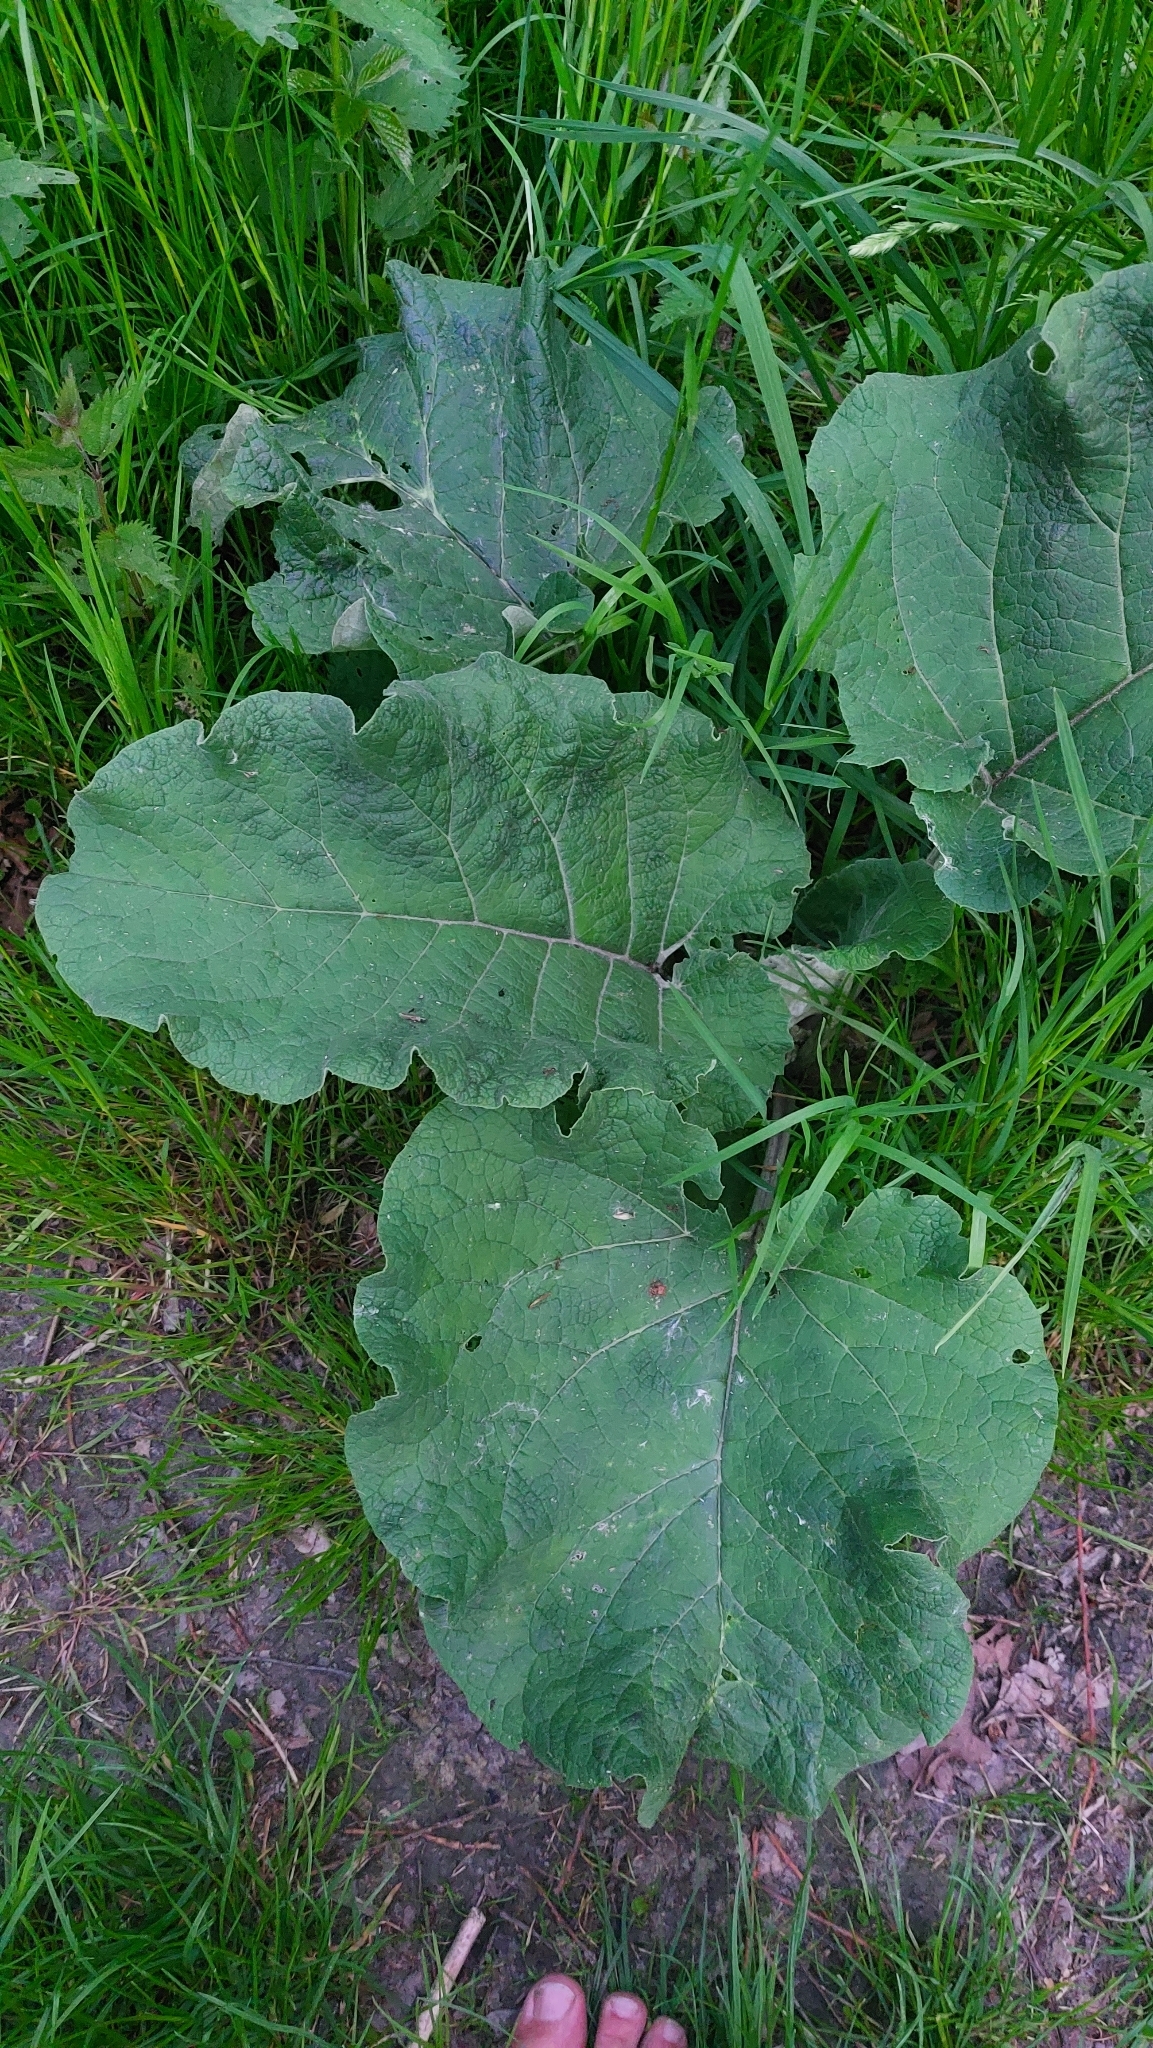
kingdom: Plantae
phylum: Tracheophyta
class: Magnoliopsida
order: Asterales
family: Asteraceae
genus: Arctium
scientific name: Arctium
